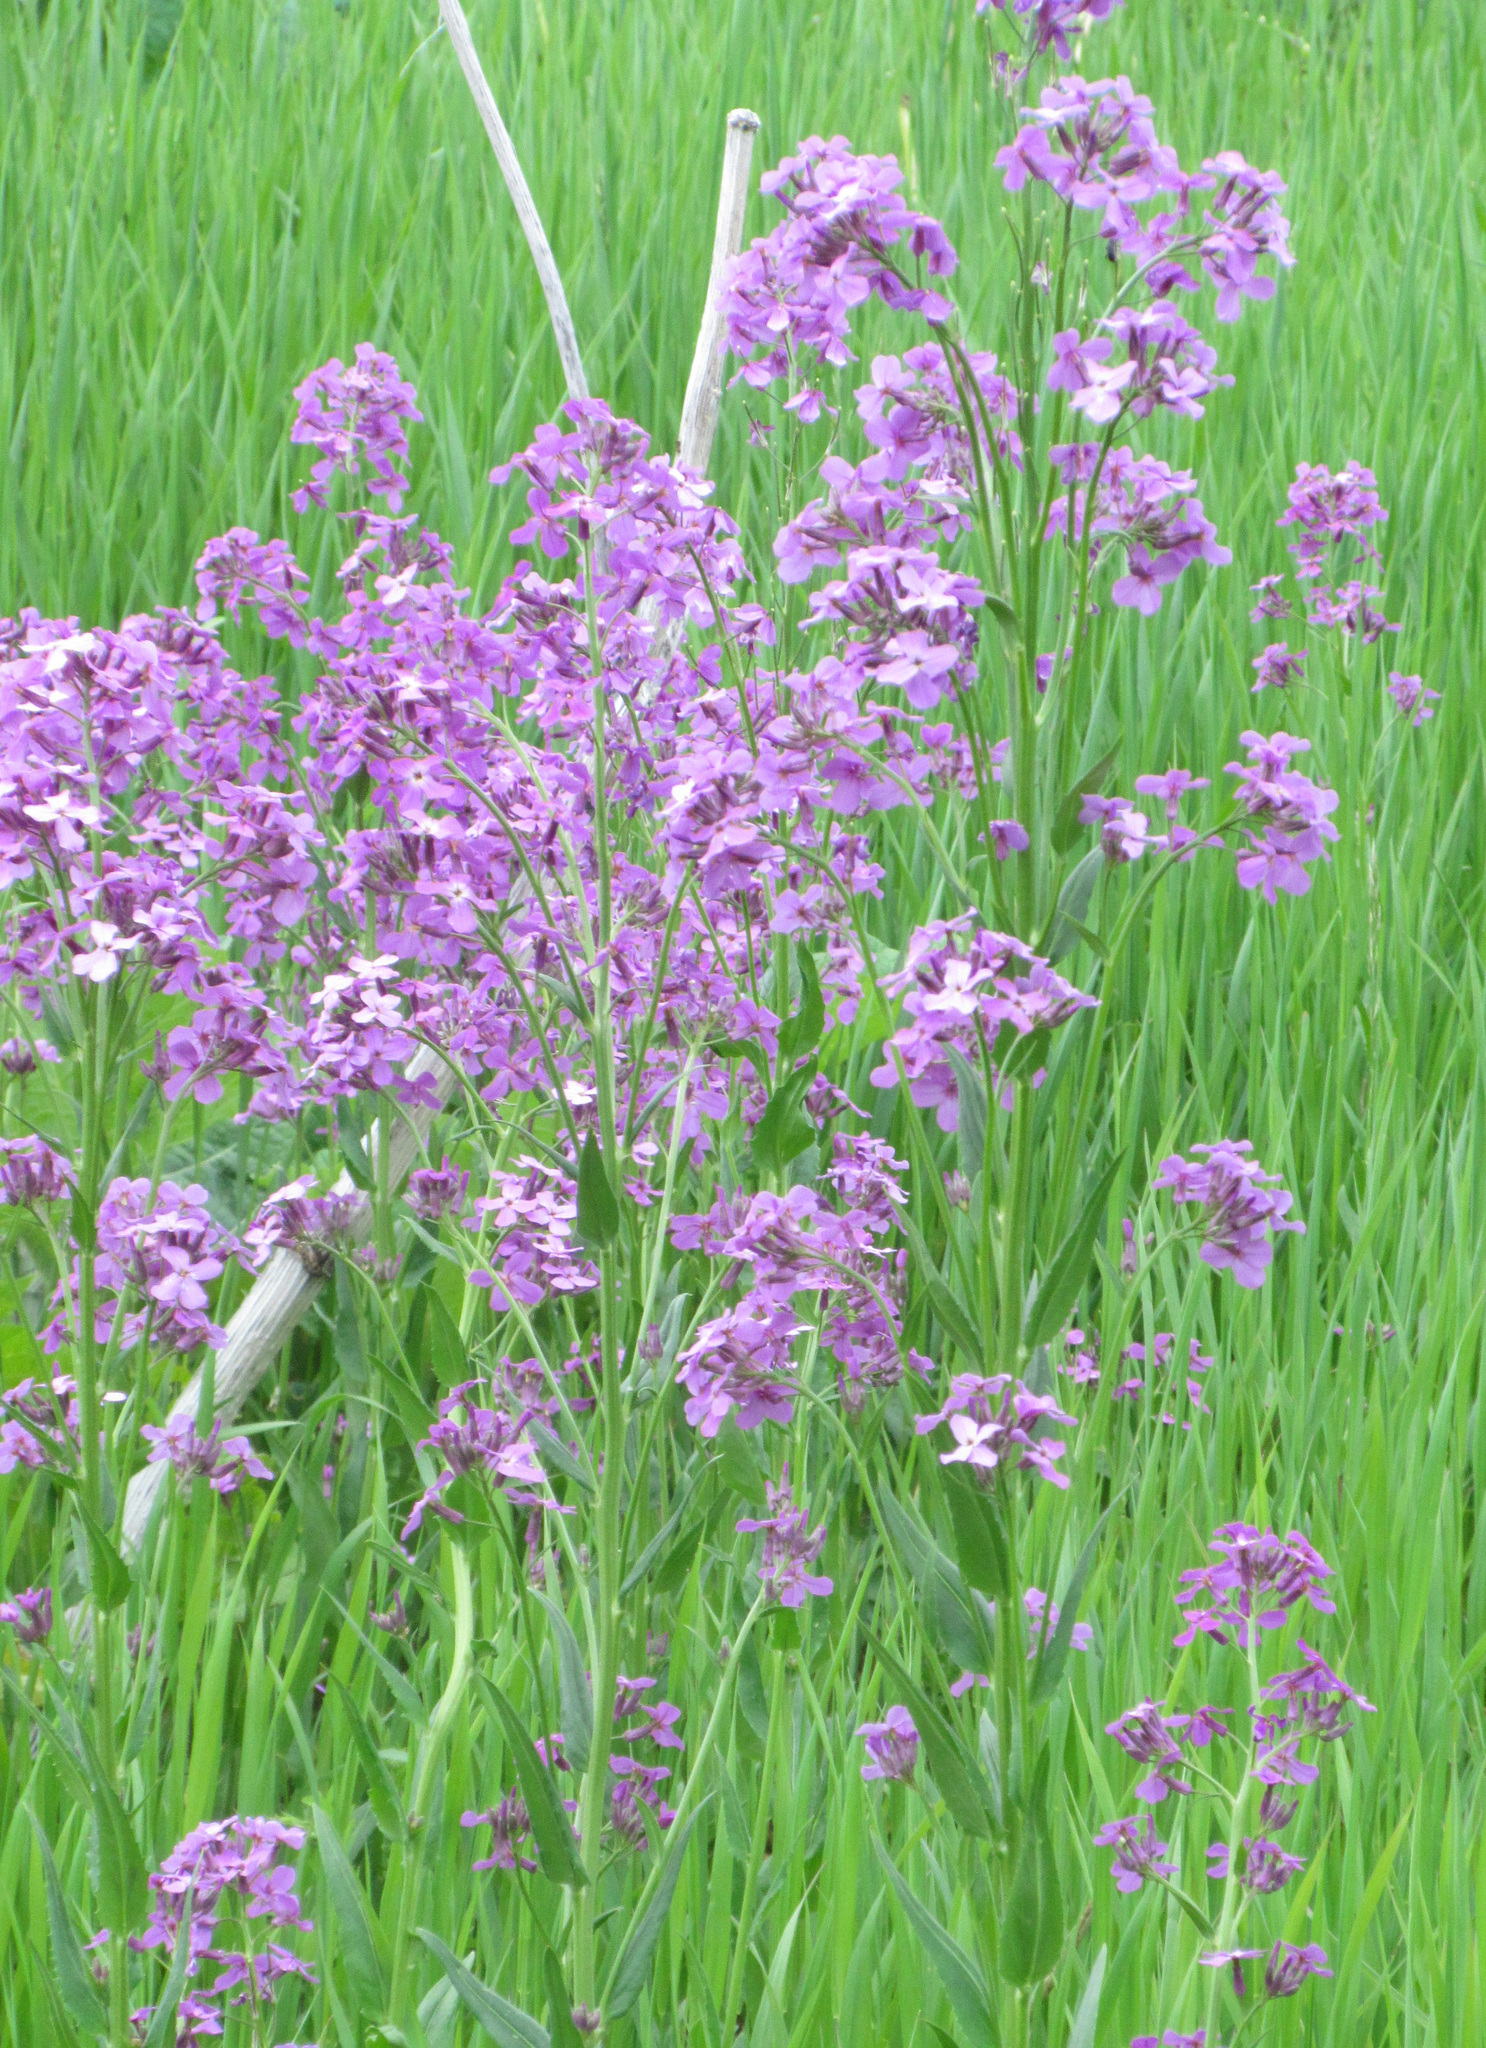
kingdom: Plantae
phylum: Tracheophyta
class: Magnoliopsida
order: Brassicales
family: Brassicaceae
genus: Hesperis
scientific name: Hesperis matronalis
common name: Dame's-violet
